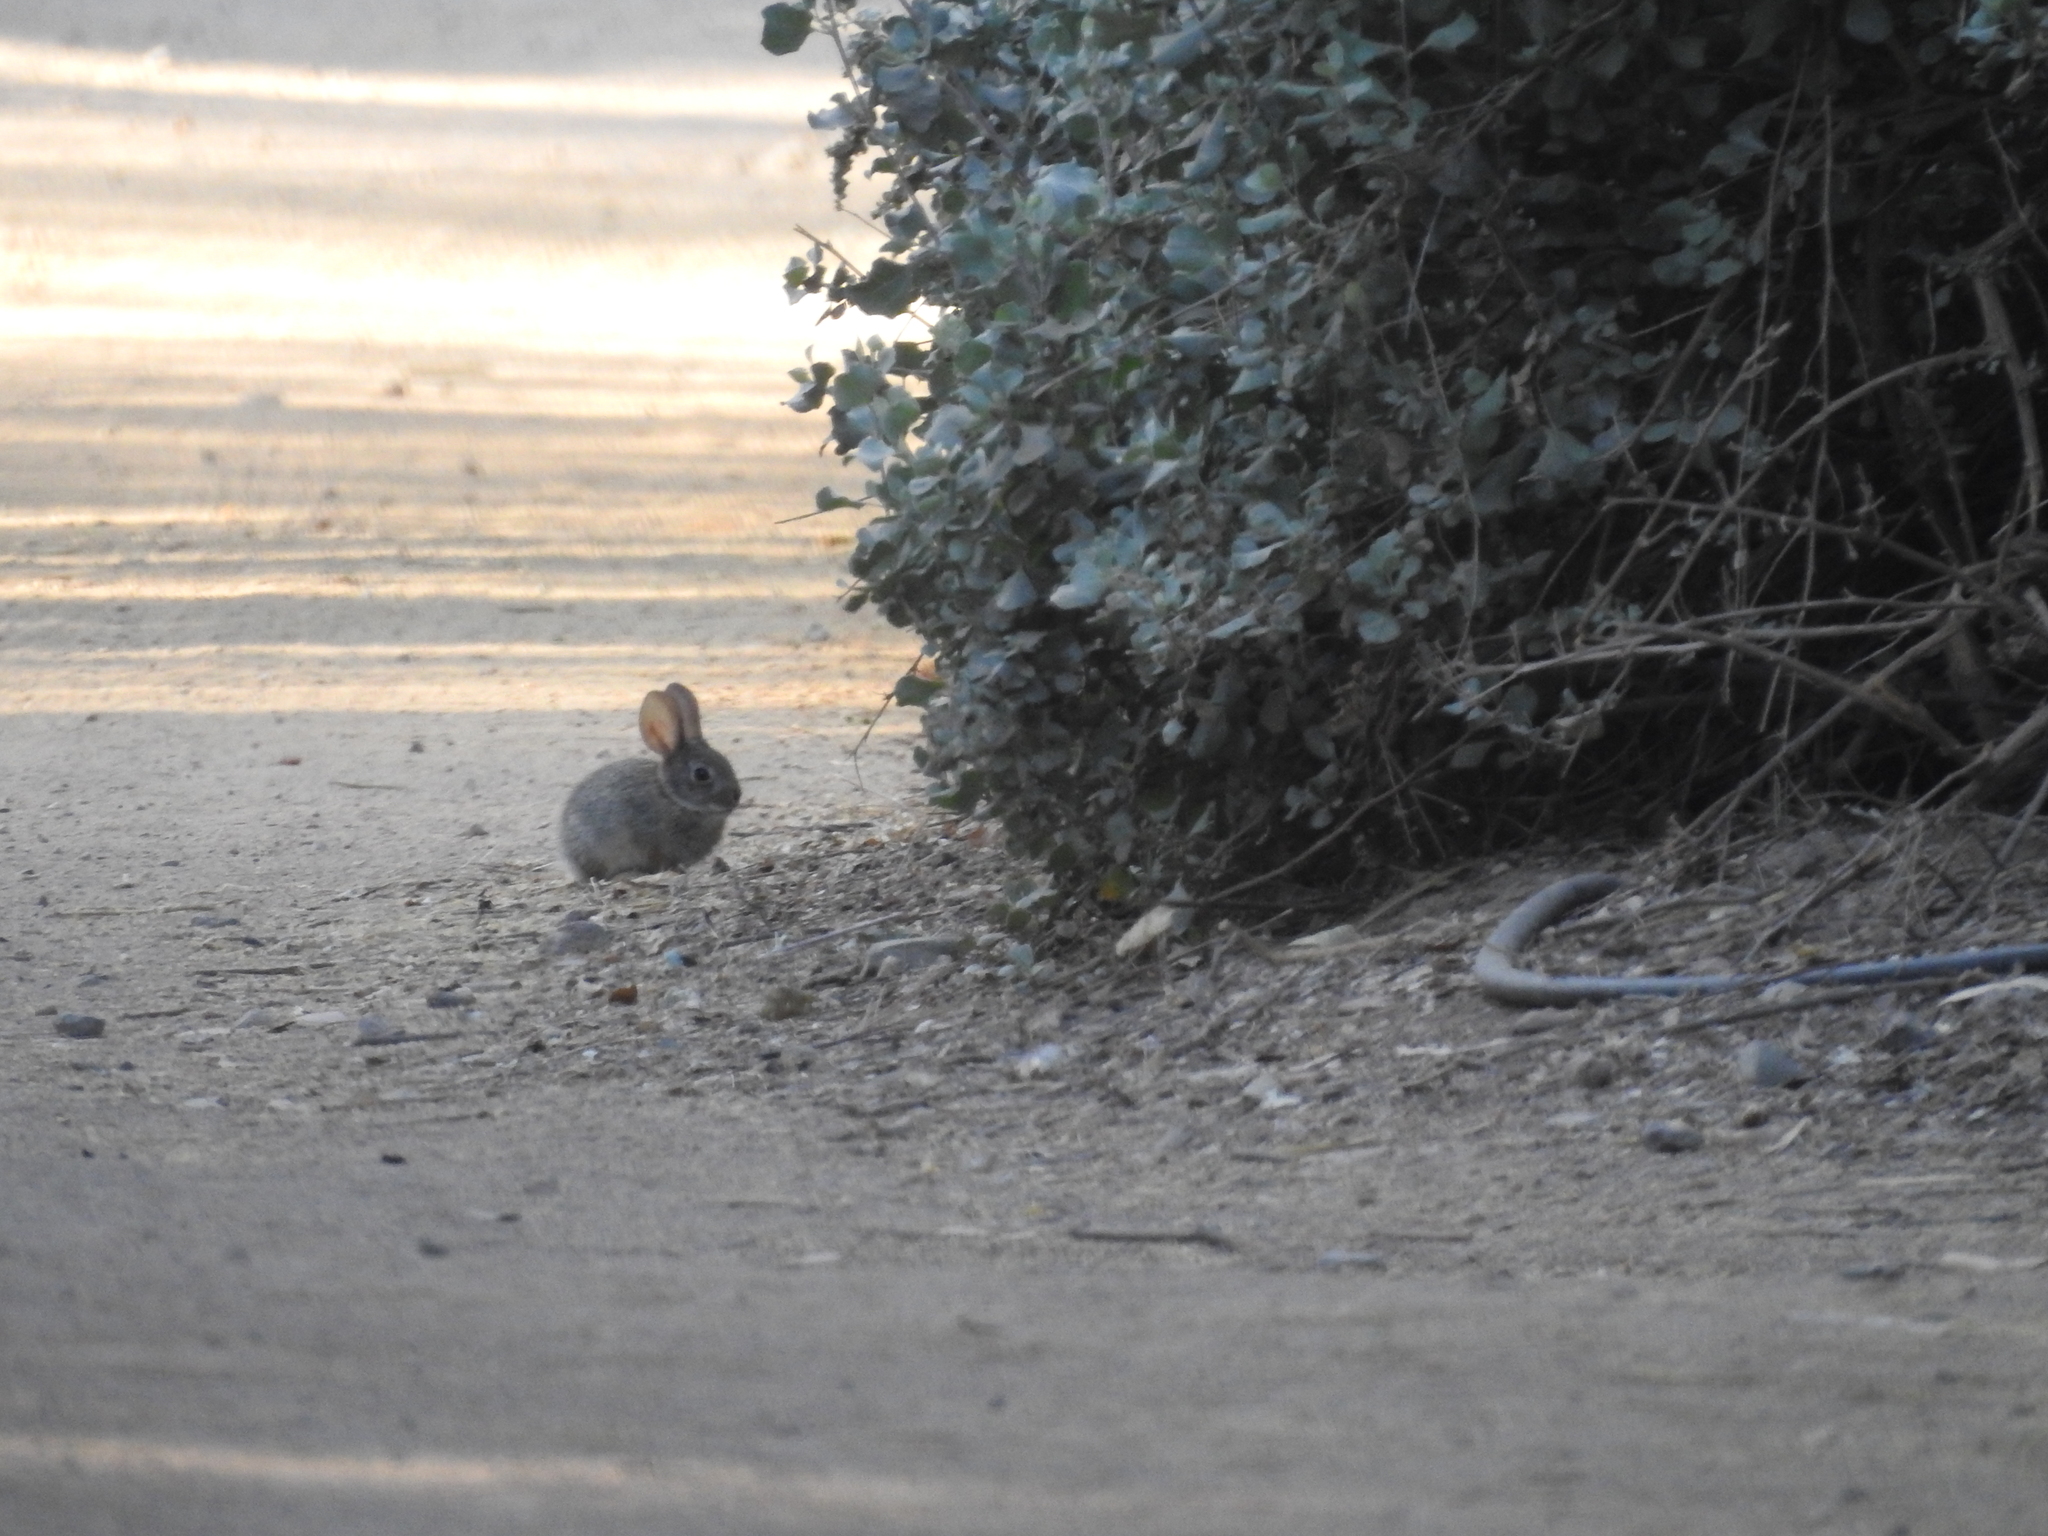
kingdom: Animalia
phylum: Chordata
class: Mammalia
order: Lagomorpha
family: Leporidae
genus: Sylvilagus
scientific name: Sylvilagus audubonii
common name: Desert cottontail
